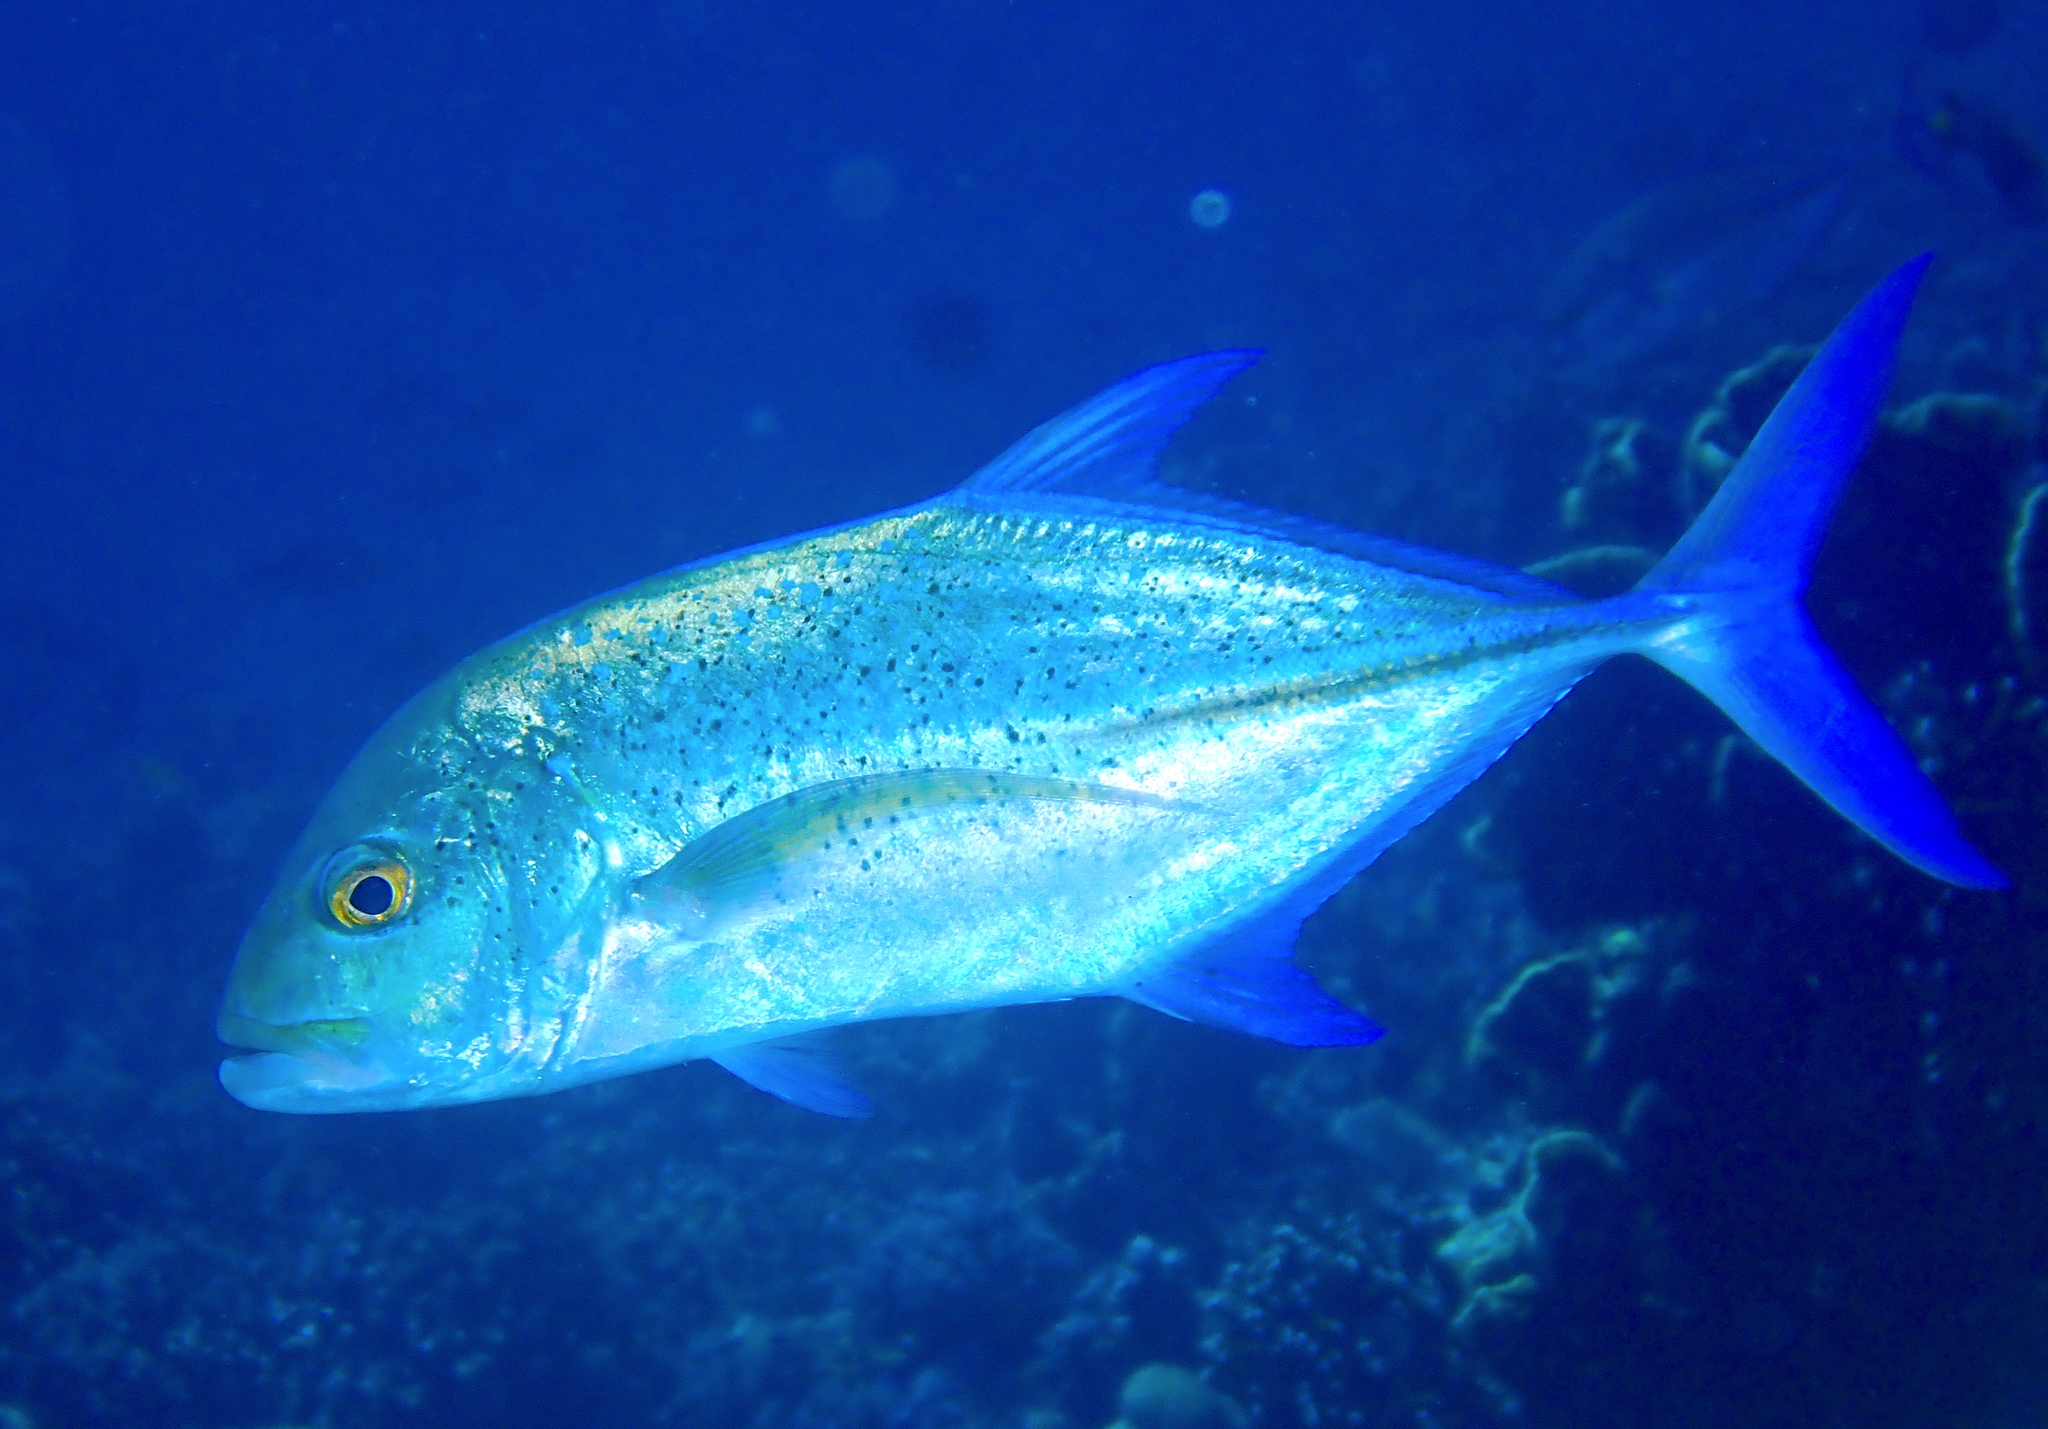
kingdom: Animalia
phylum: Chordata
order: Perciformes
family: Carangidae
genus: Caranx
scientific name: Caranx melampygus
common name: Bluefin trevally
